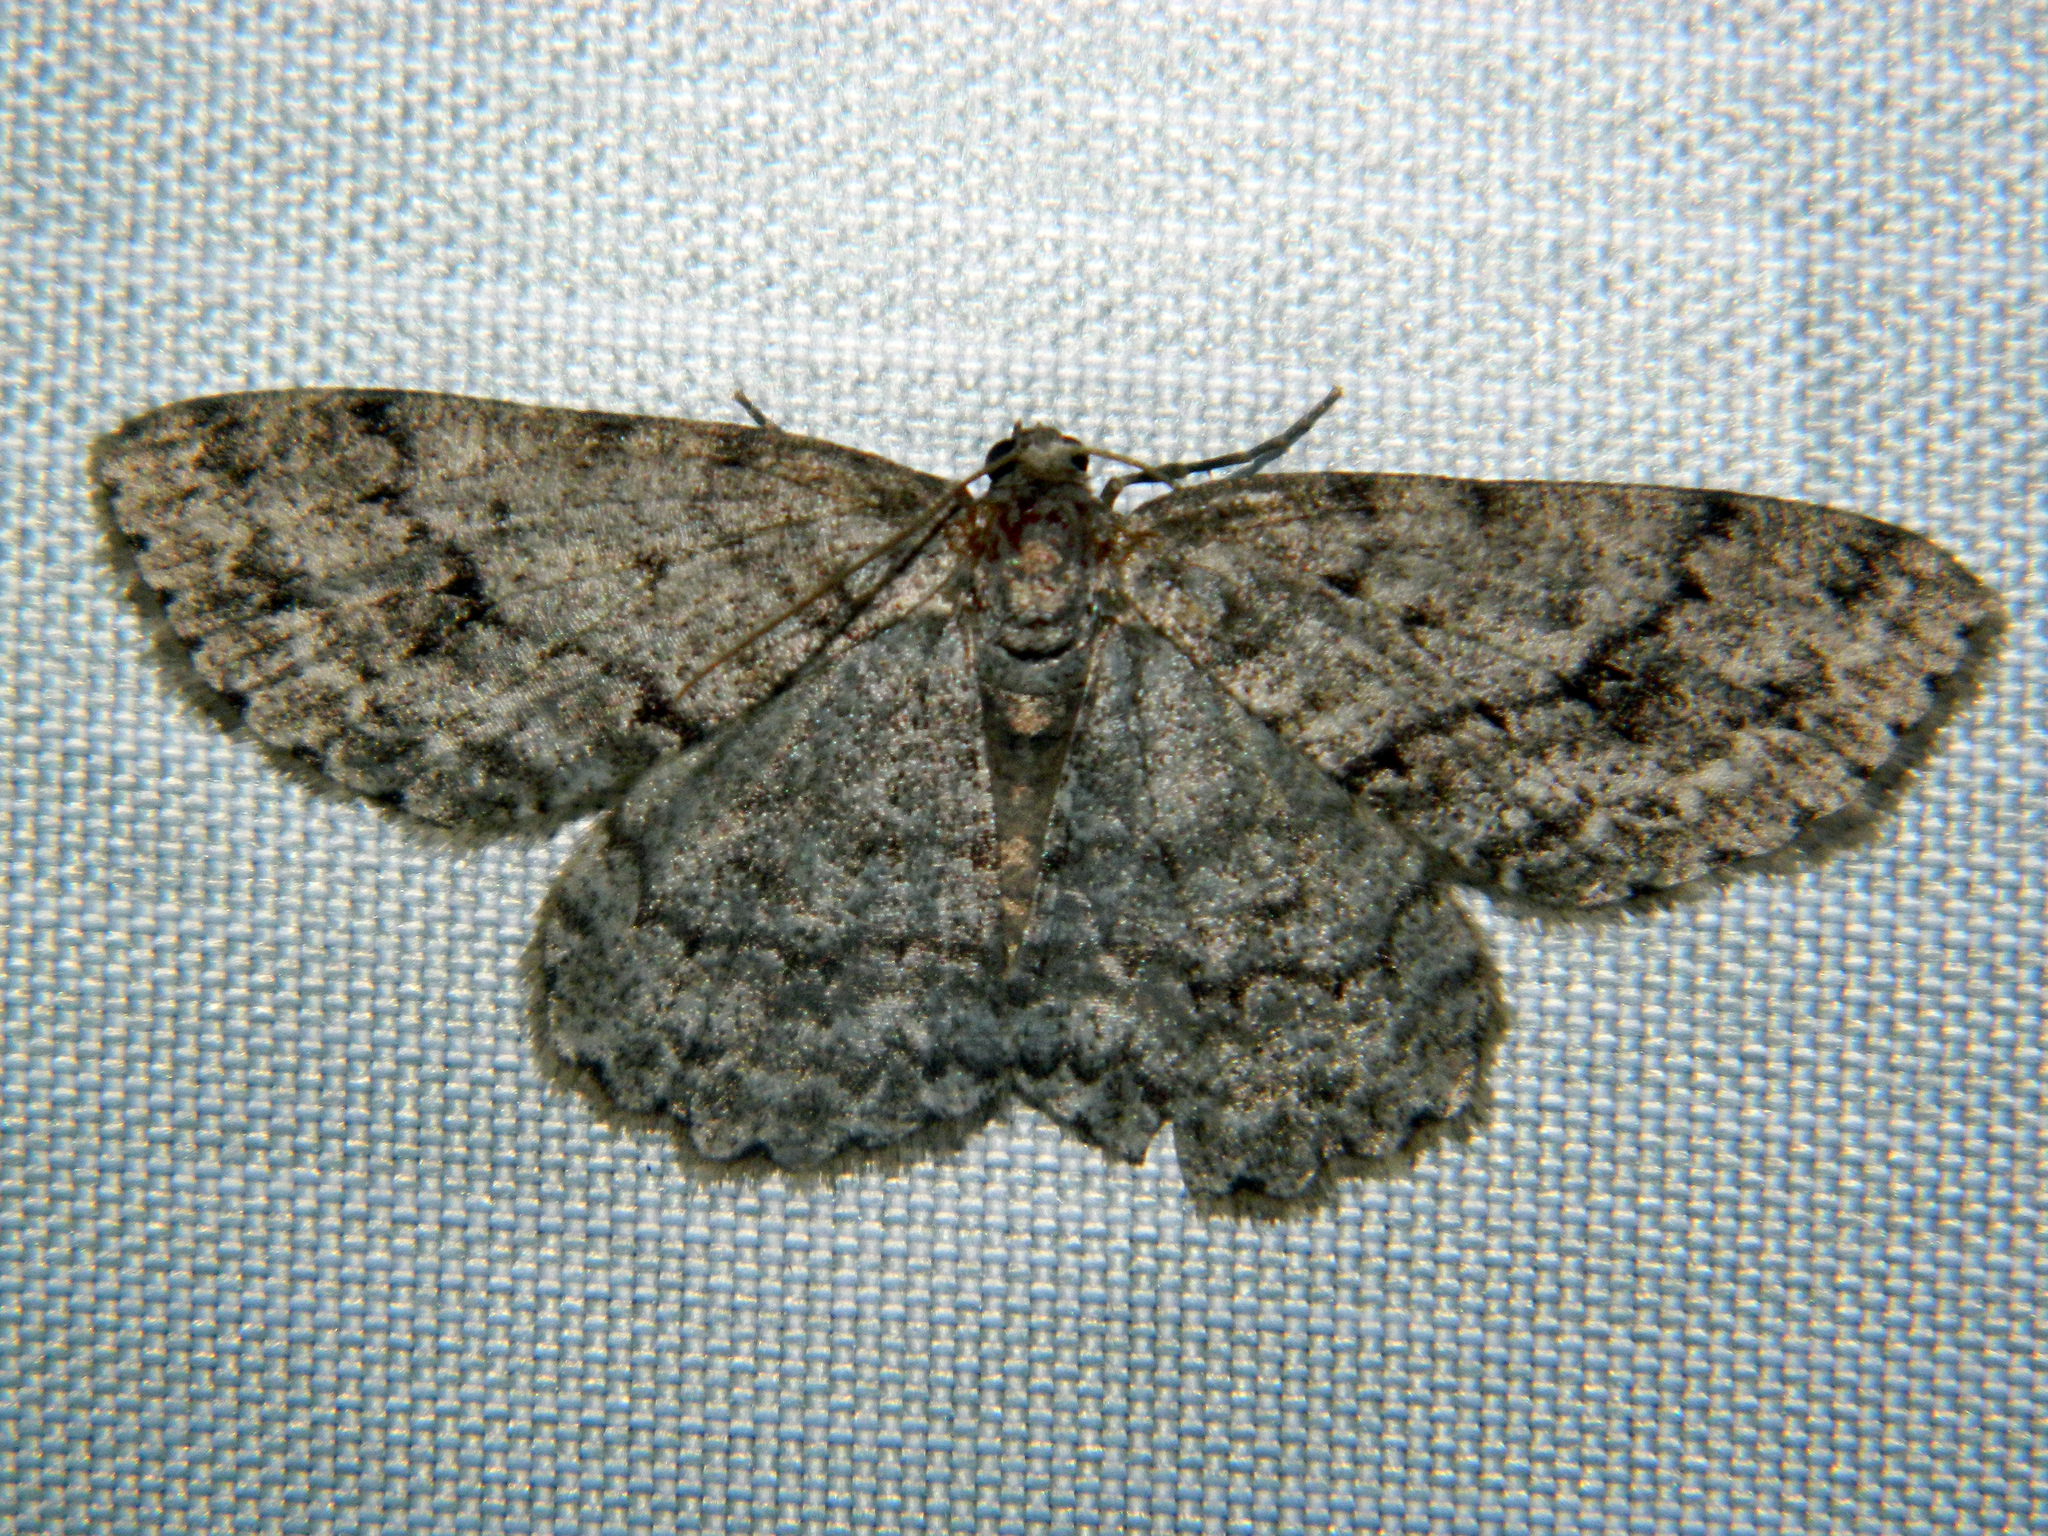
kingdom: Animalia
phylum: Arthropoda
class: Insecta
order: Lepidoptera
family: Geometridae
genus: Ectropis
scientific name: Ectropis crepuscularia
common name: Engrailed
